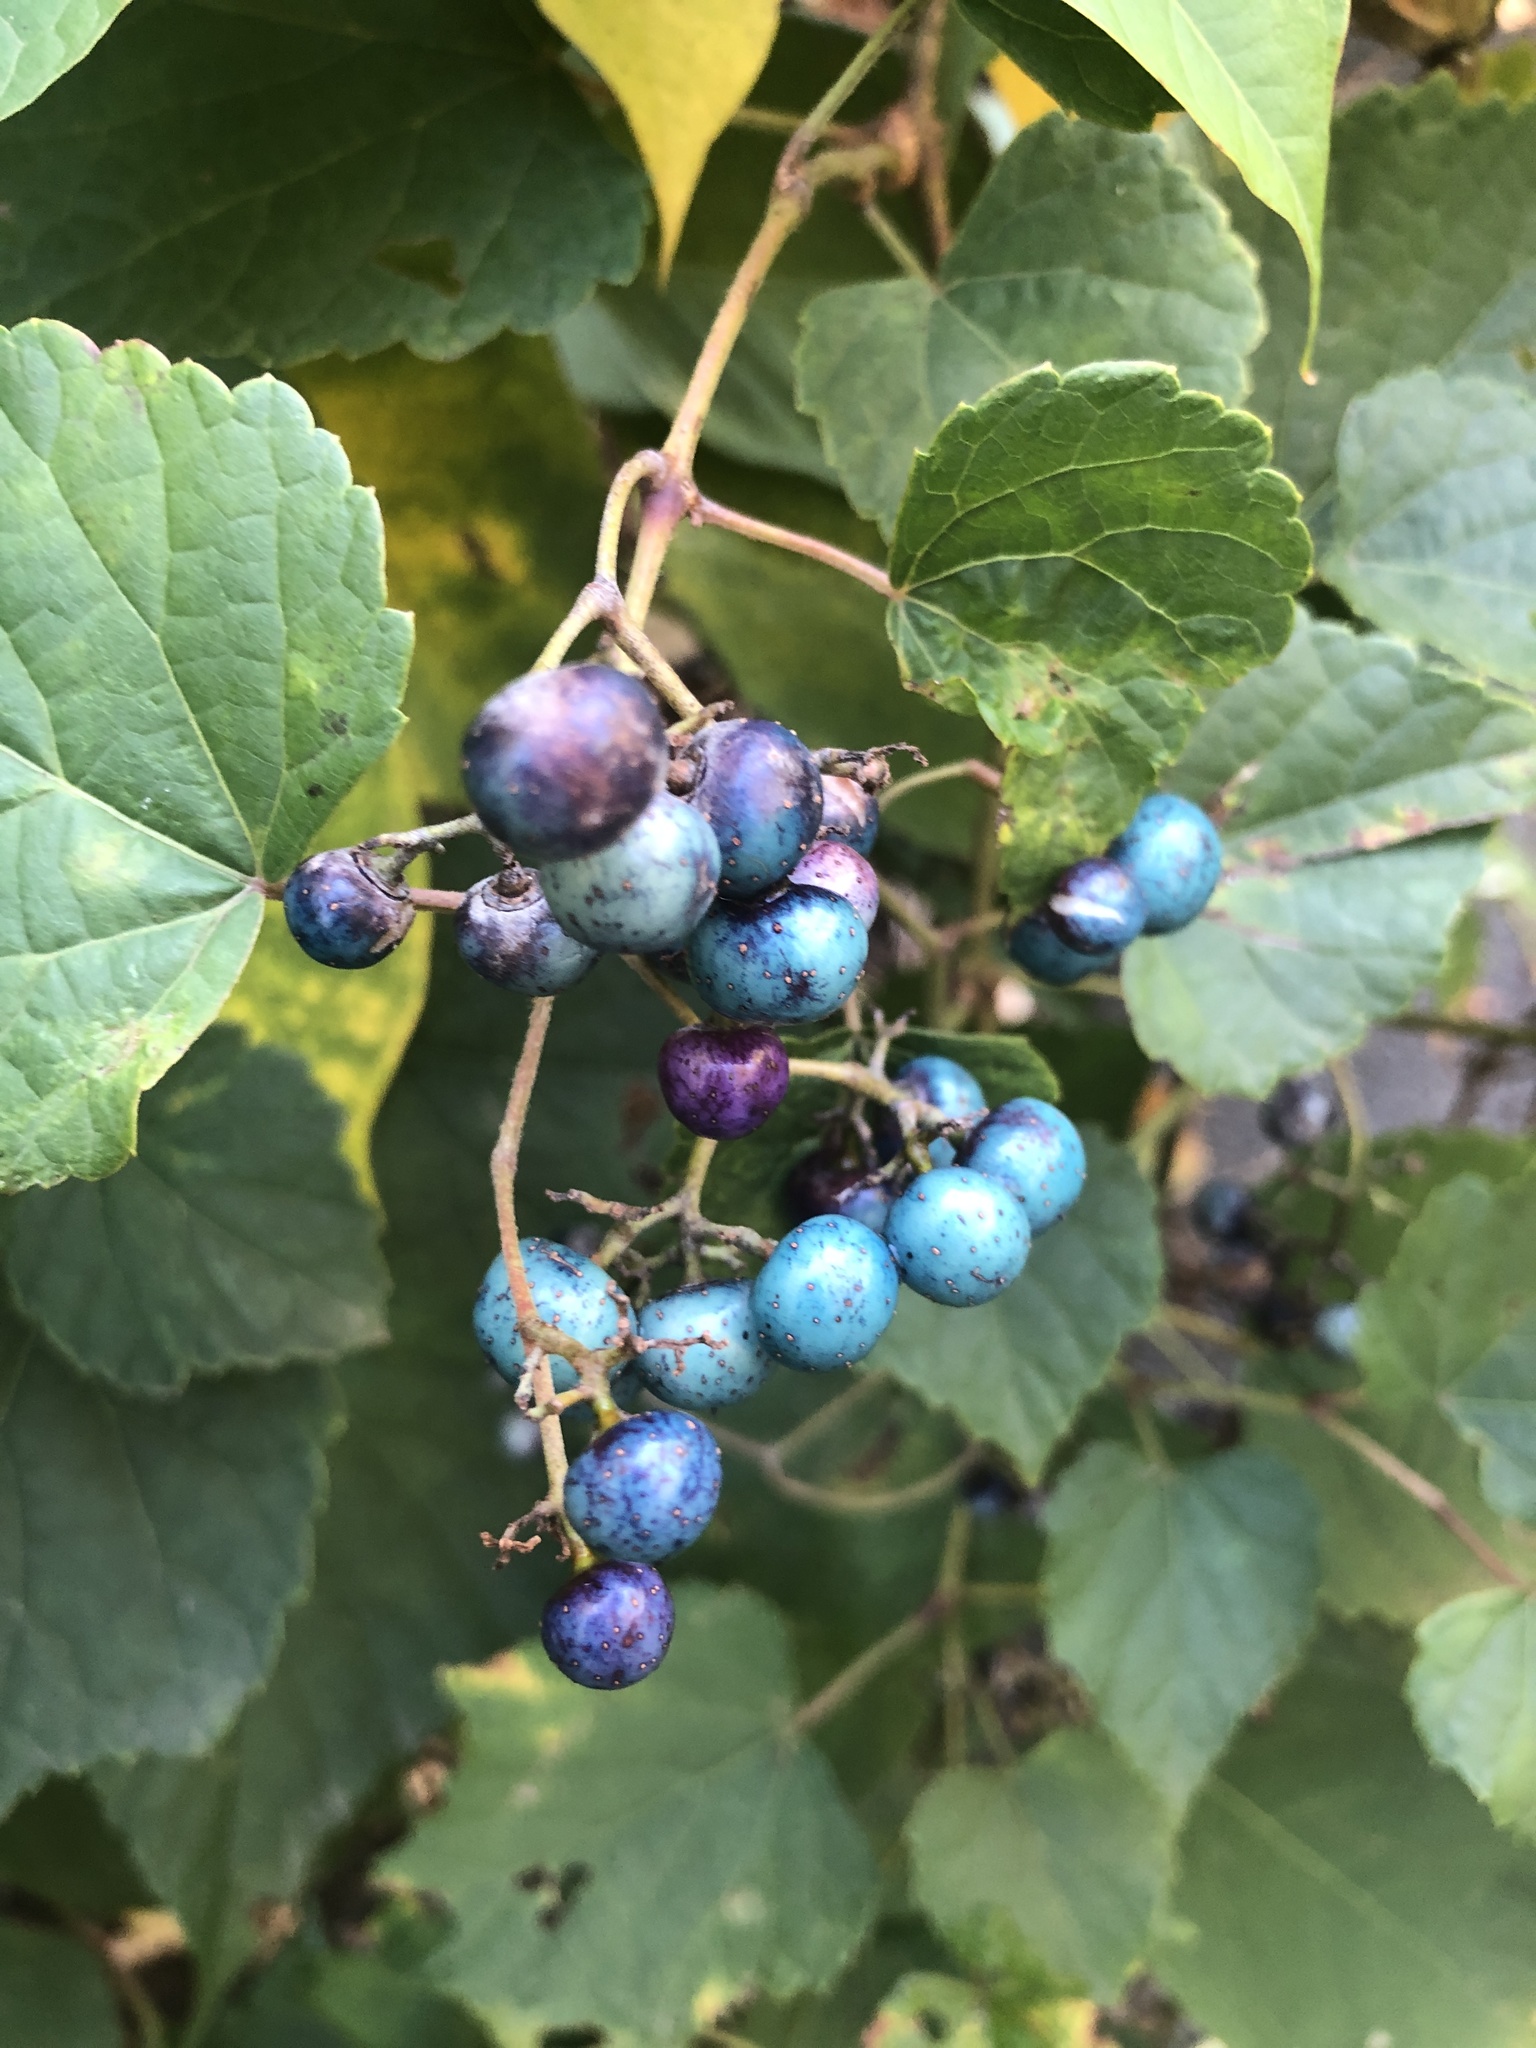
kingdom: Plantae
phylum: Tracheophyta
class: Magnoliopsida
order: Vitales
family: Vitaceae
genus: Ampelopsis
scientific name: Ampelopsis glandulosa
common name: Amur peppervine
